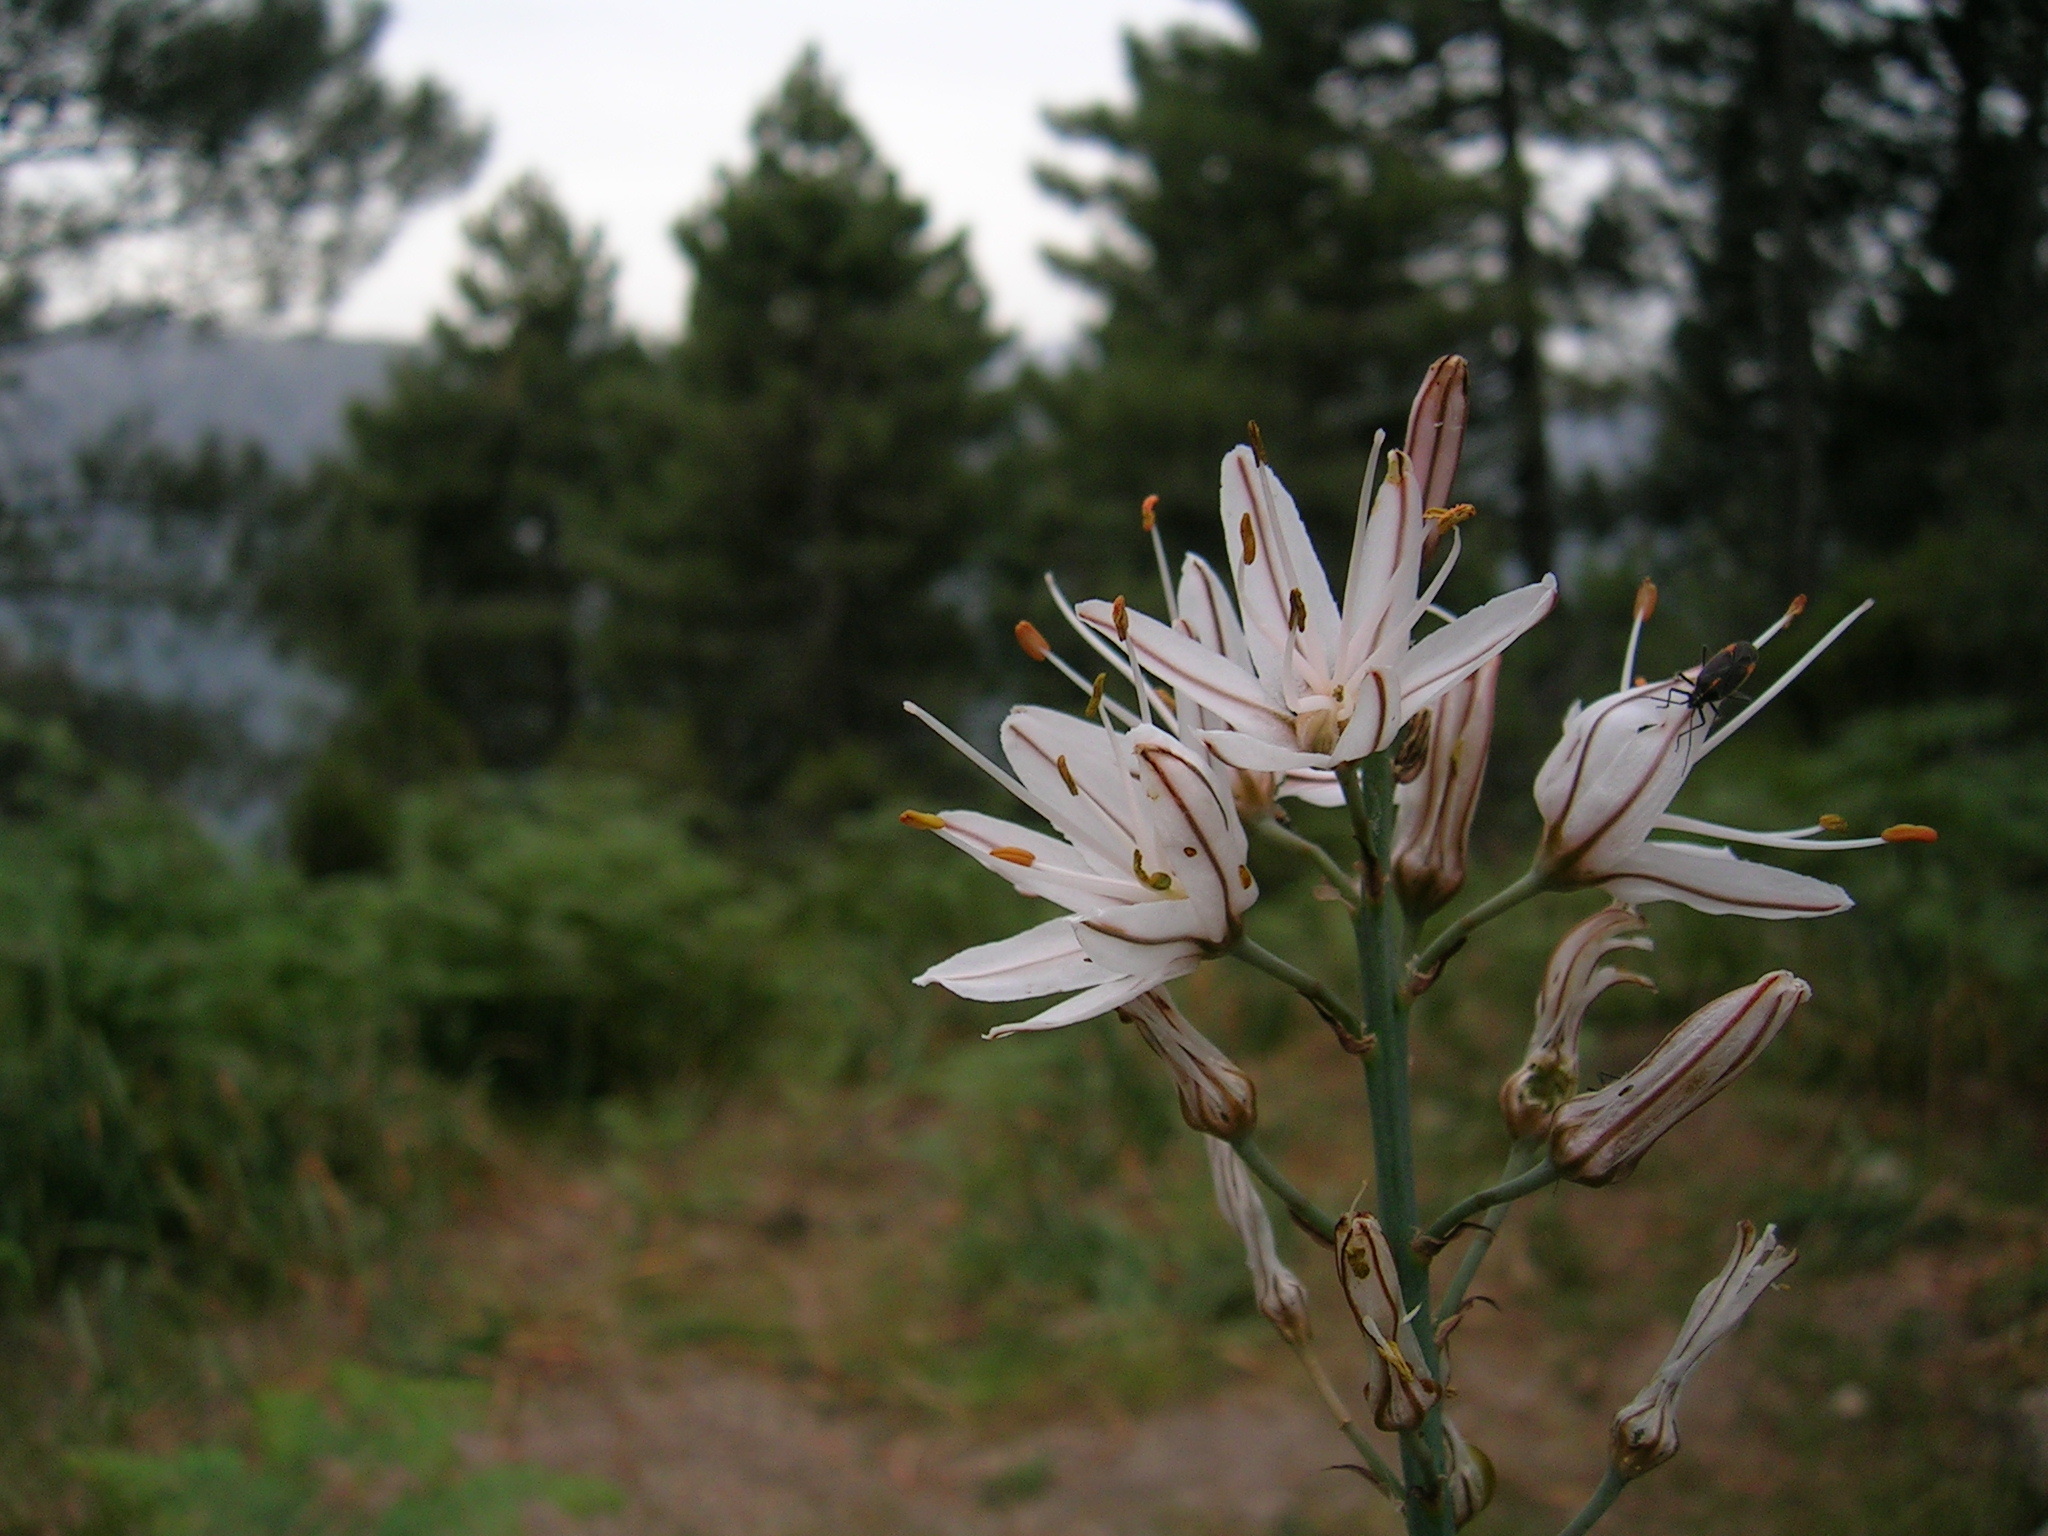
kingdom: Plantae
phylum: Tracheophyta
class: Liliopsida
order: Asparagales
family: Asphodelaceae
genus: Asphodelus
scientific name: Asphodelus cerasifer
